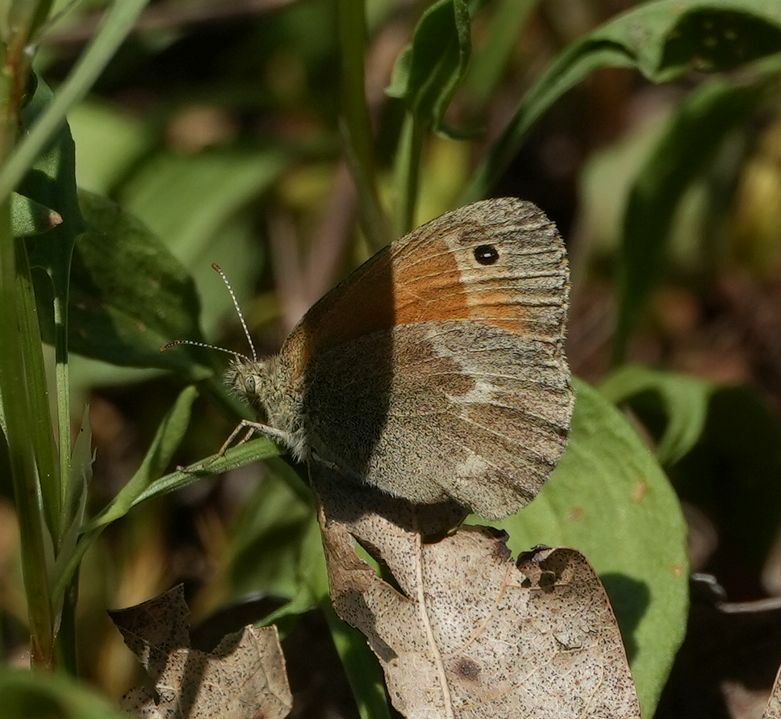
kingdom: Animalia
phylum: Arthropoda
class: Insecta
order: Lepidoptera
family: Nymphalidae
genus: Coenonympha
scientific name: Coenonympha california
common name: Common ringlet
